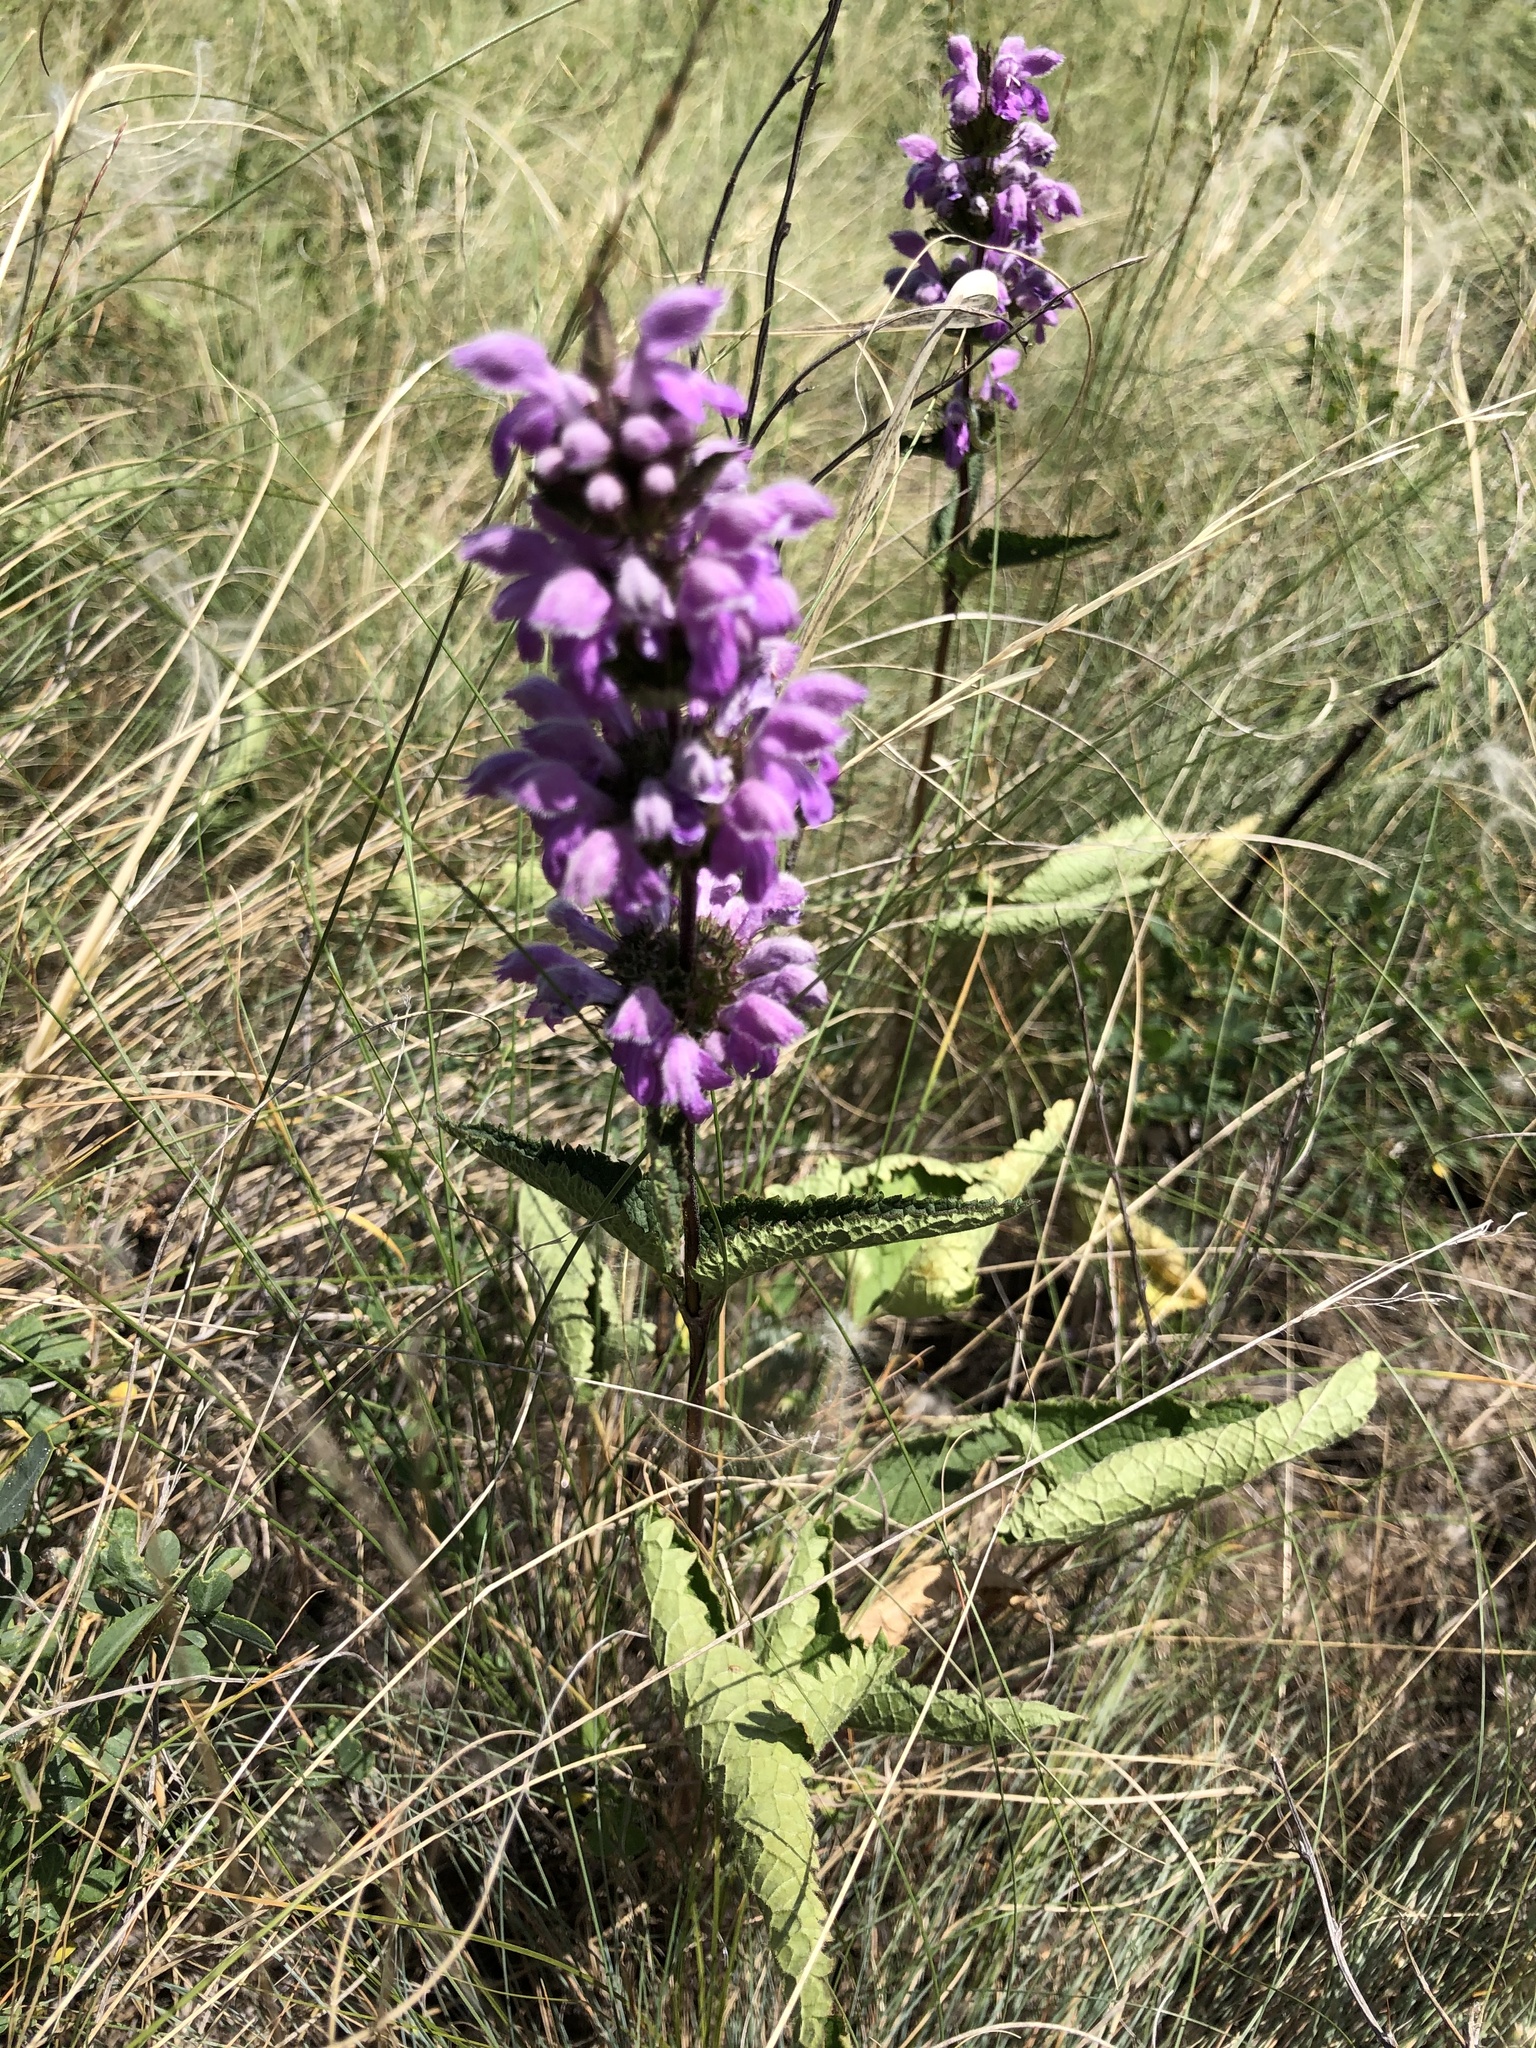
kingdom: Plantae
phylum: Tracheophyta
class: Magnoliopsida
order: Lamiales
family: Lamiaceae
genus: Phlomoides
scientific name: Phlomoides tuberosa
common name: Tuberous jerusalem sage
